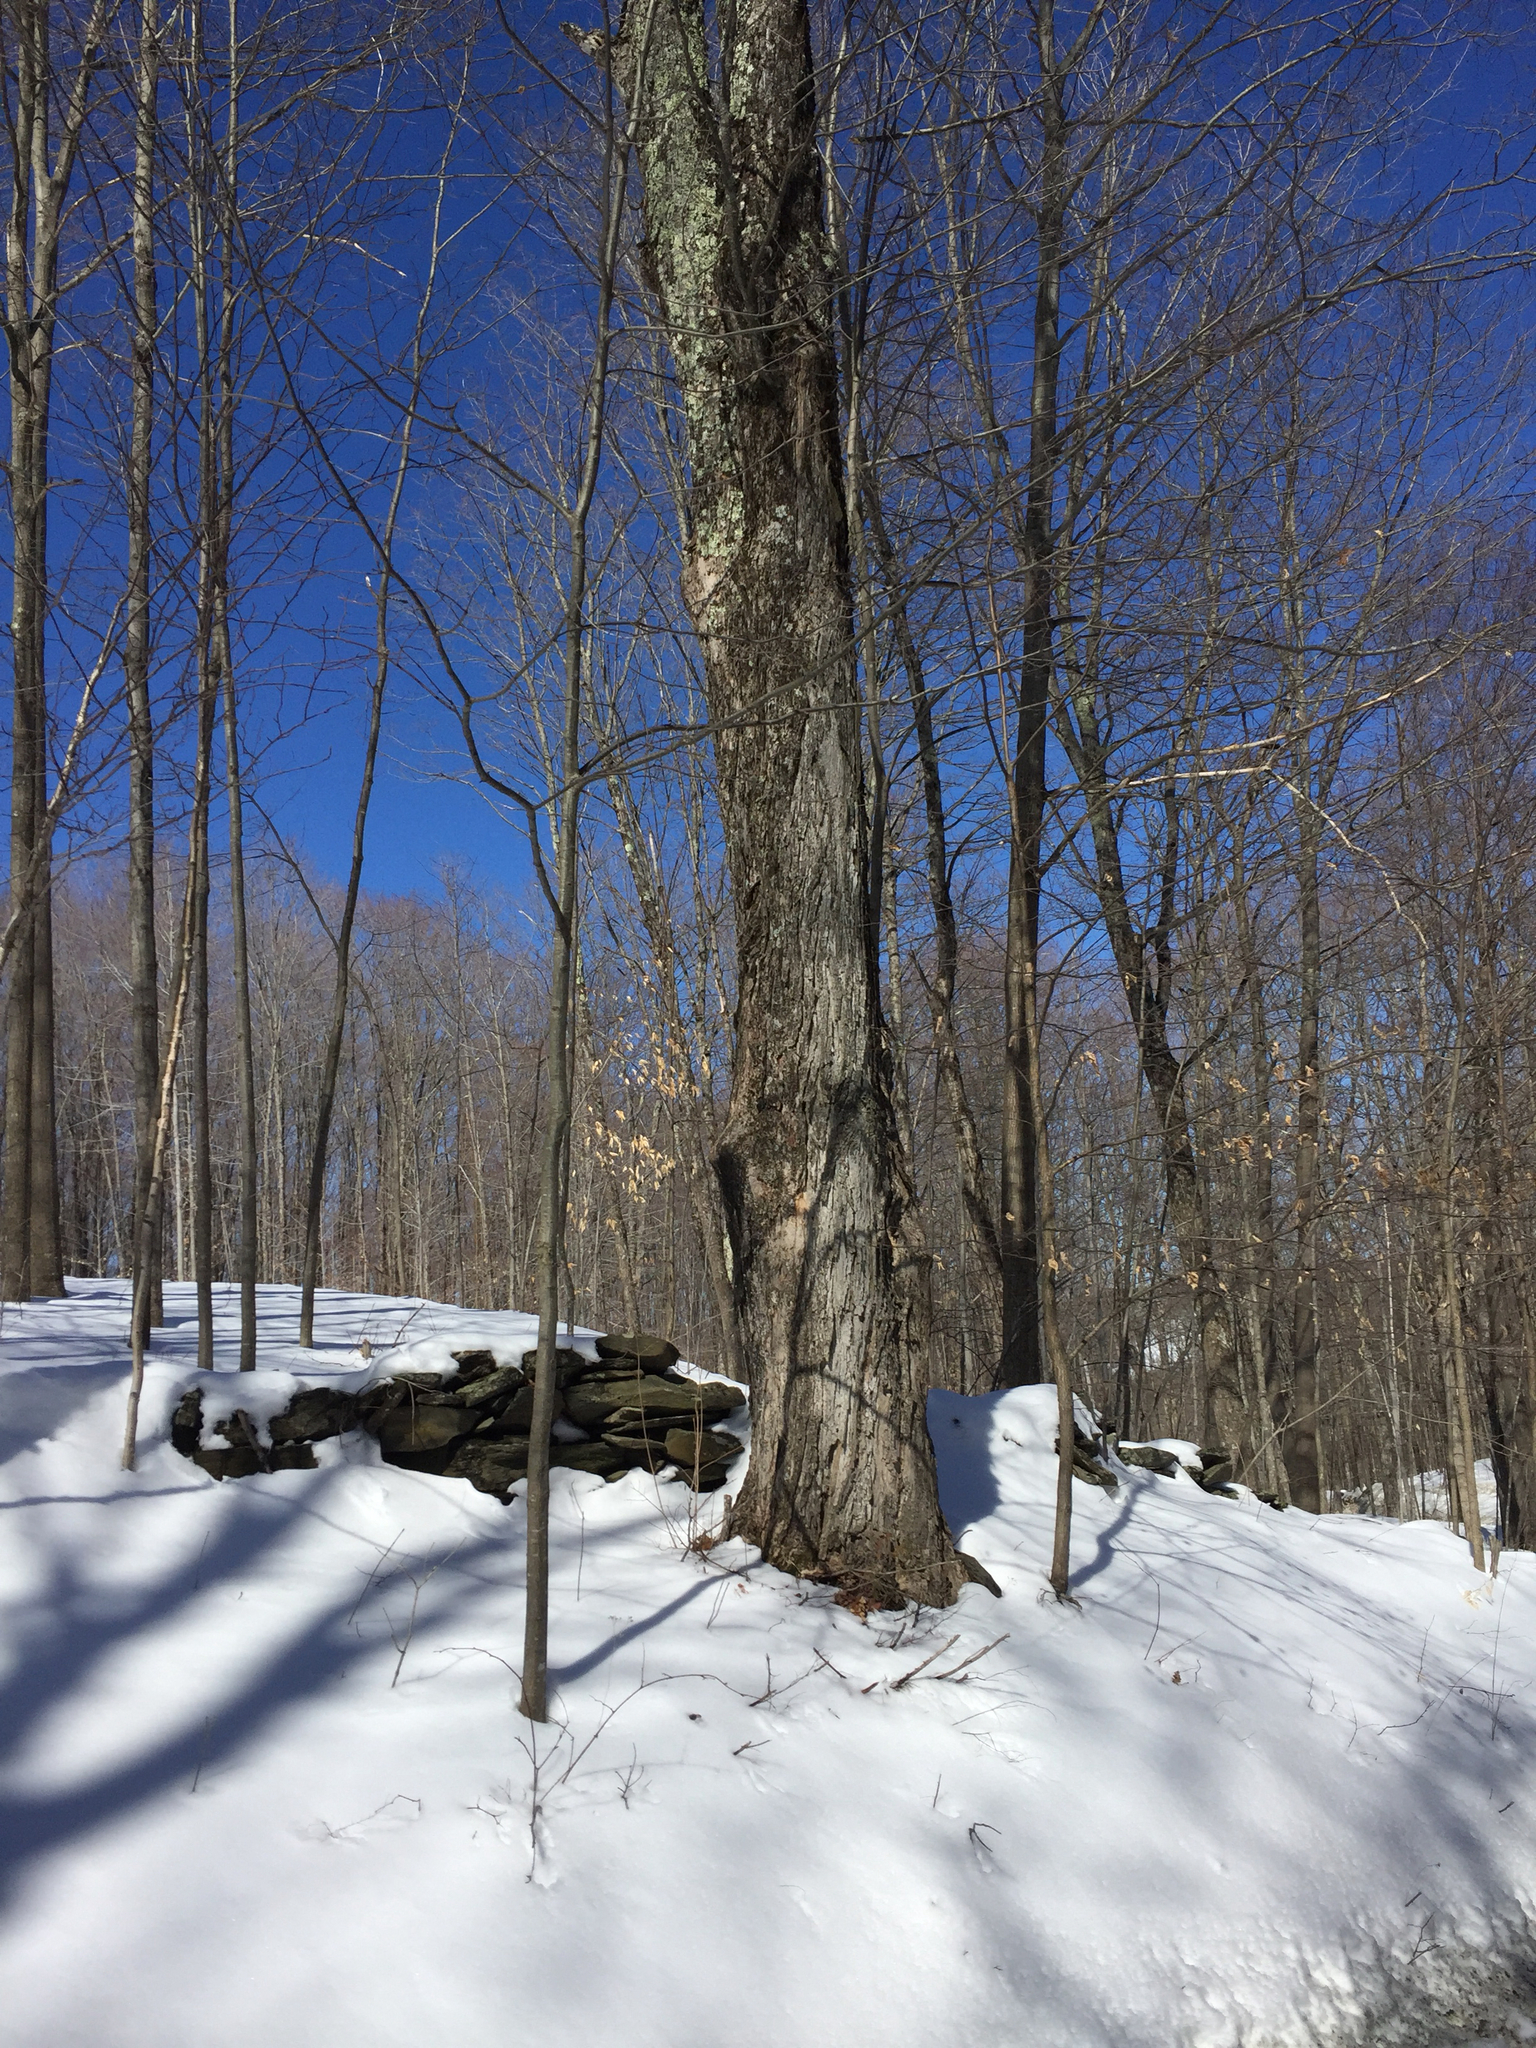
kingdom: Plantae
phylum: Tracheophyta
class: Magnoliopsida
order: Sapindales
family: Sapindaceae
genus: Acer
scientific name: Acer saccharum
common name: Sugar maple
